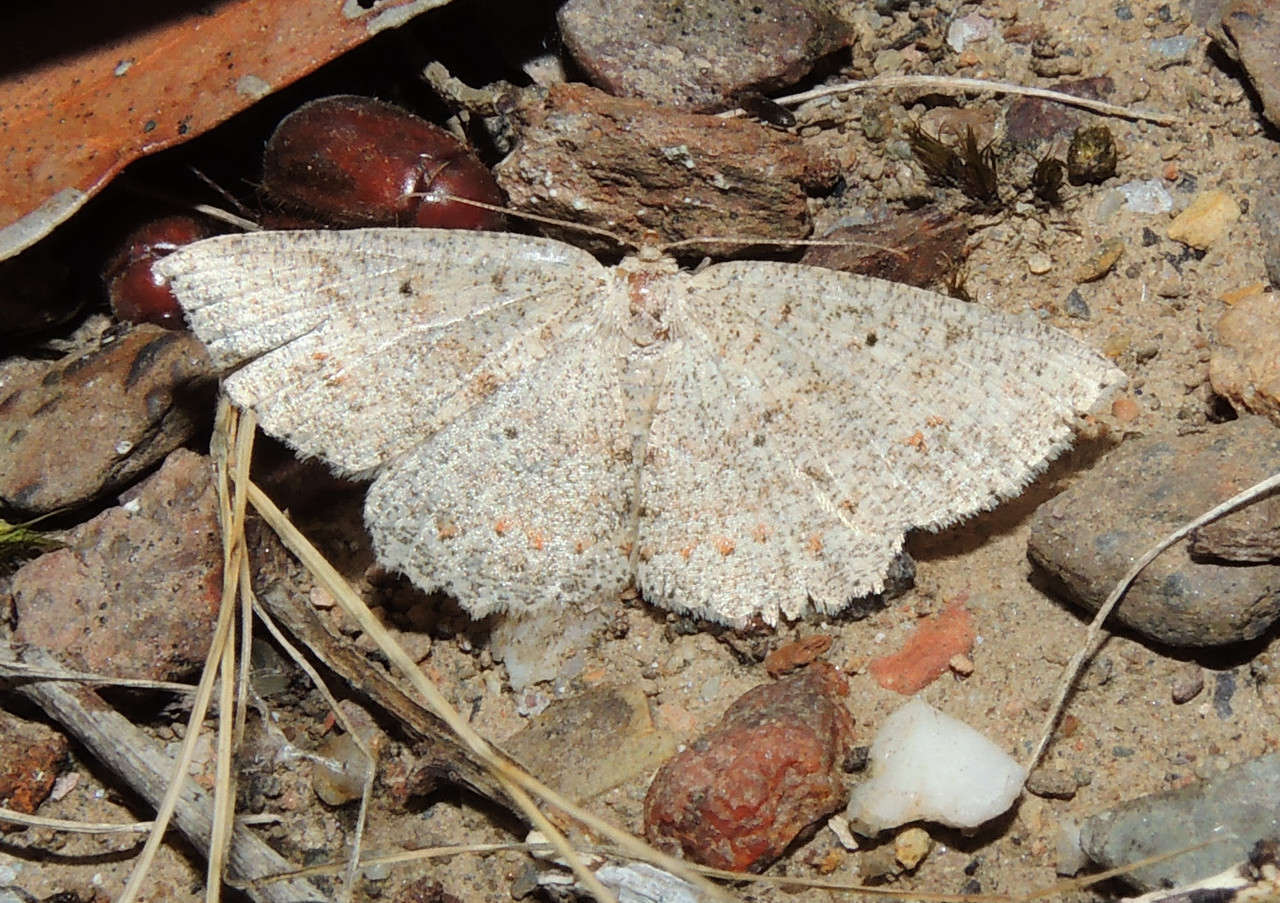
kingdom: Animalia
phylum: Arthropoda
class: Insecta
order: Lepidoptera
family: Geometridae
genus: Casbia
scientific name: Casbia farinalis
